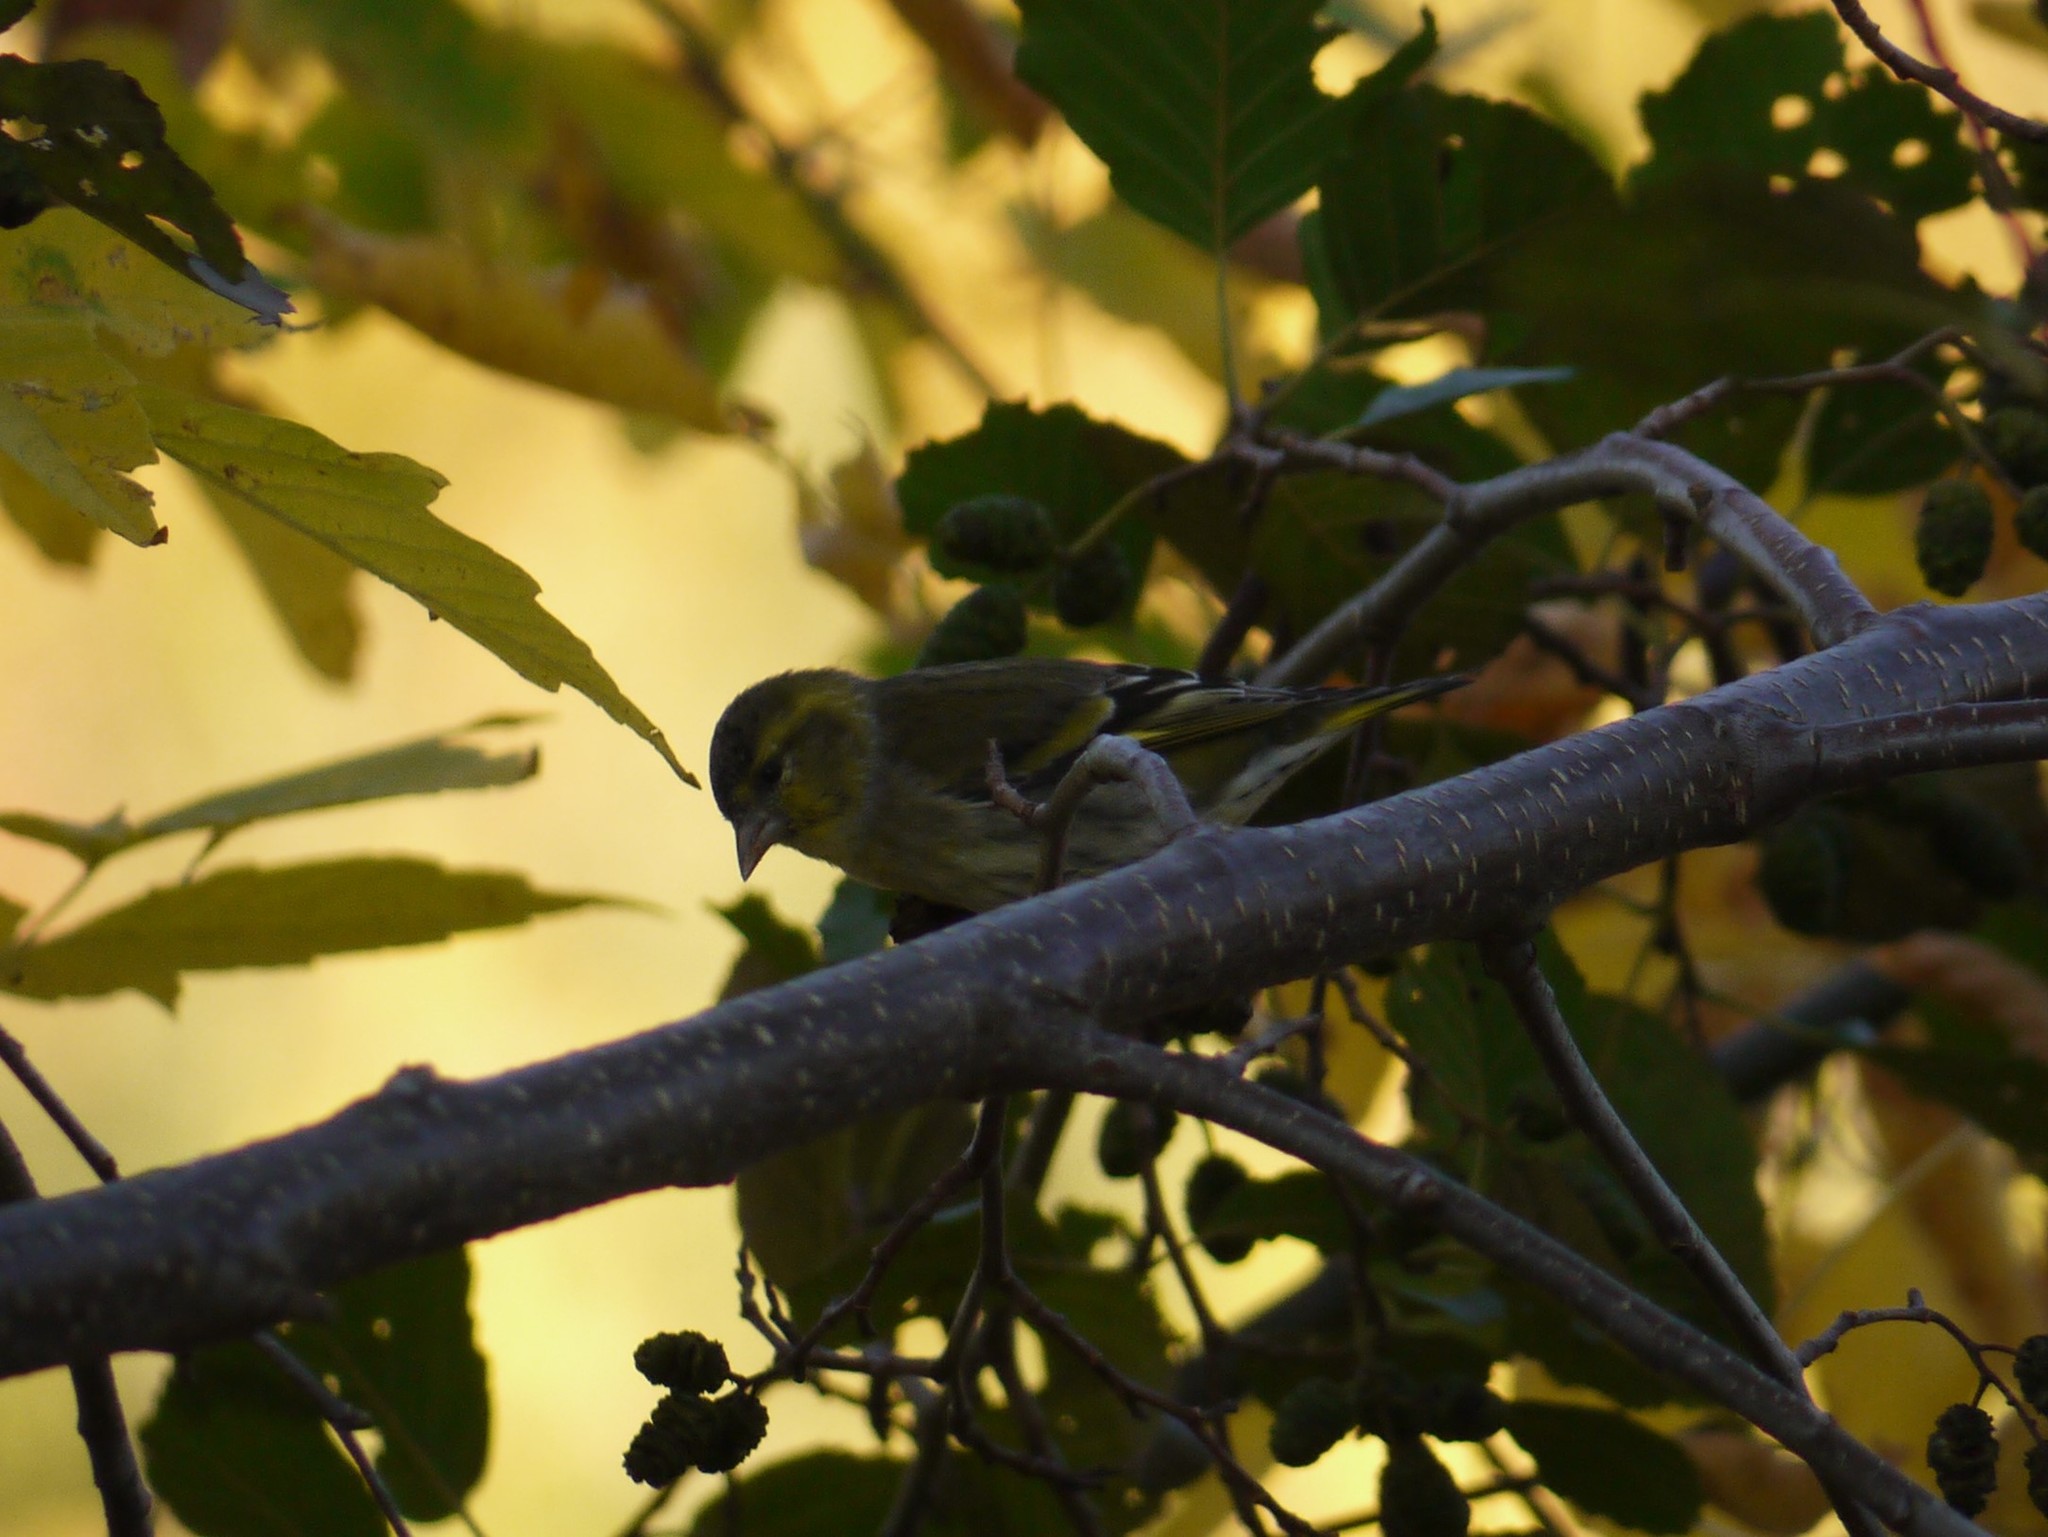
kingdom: Animalia
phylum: Chordata
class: Aves
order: Passeriformes
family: Fringillidae
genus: Spinus
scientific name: Spinus spinus
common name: Eurasian siskin
